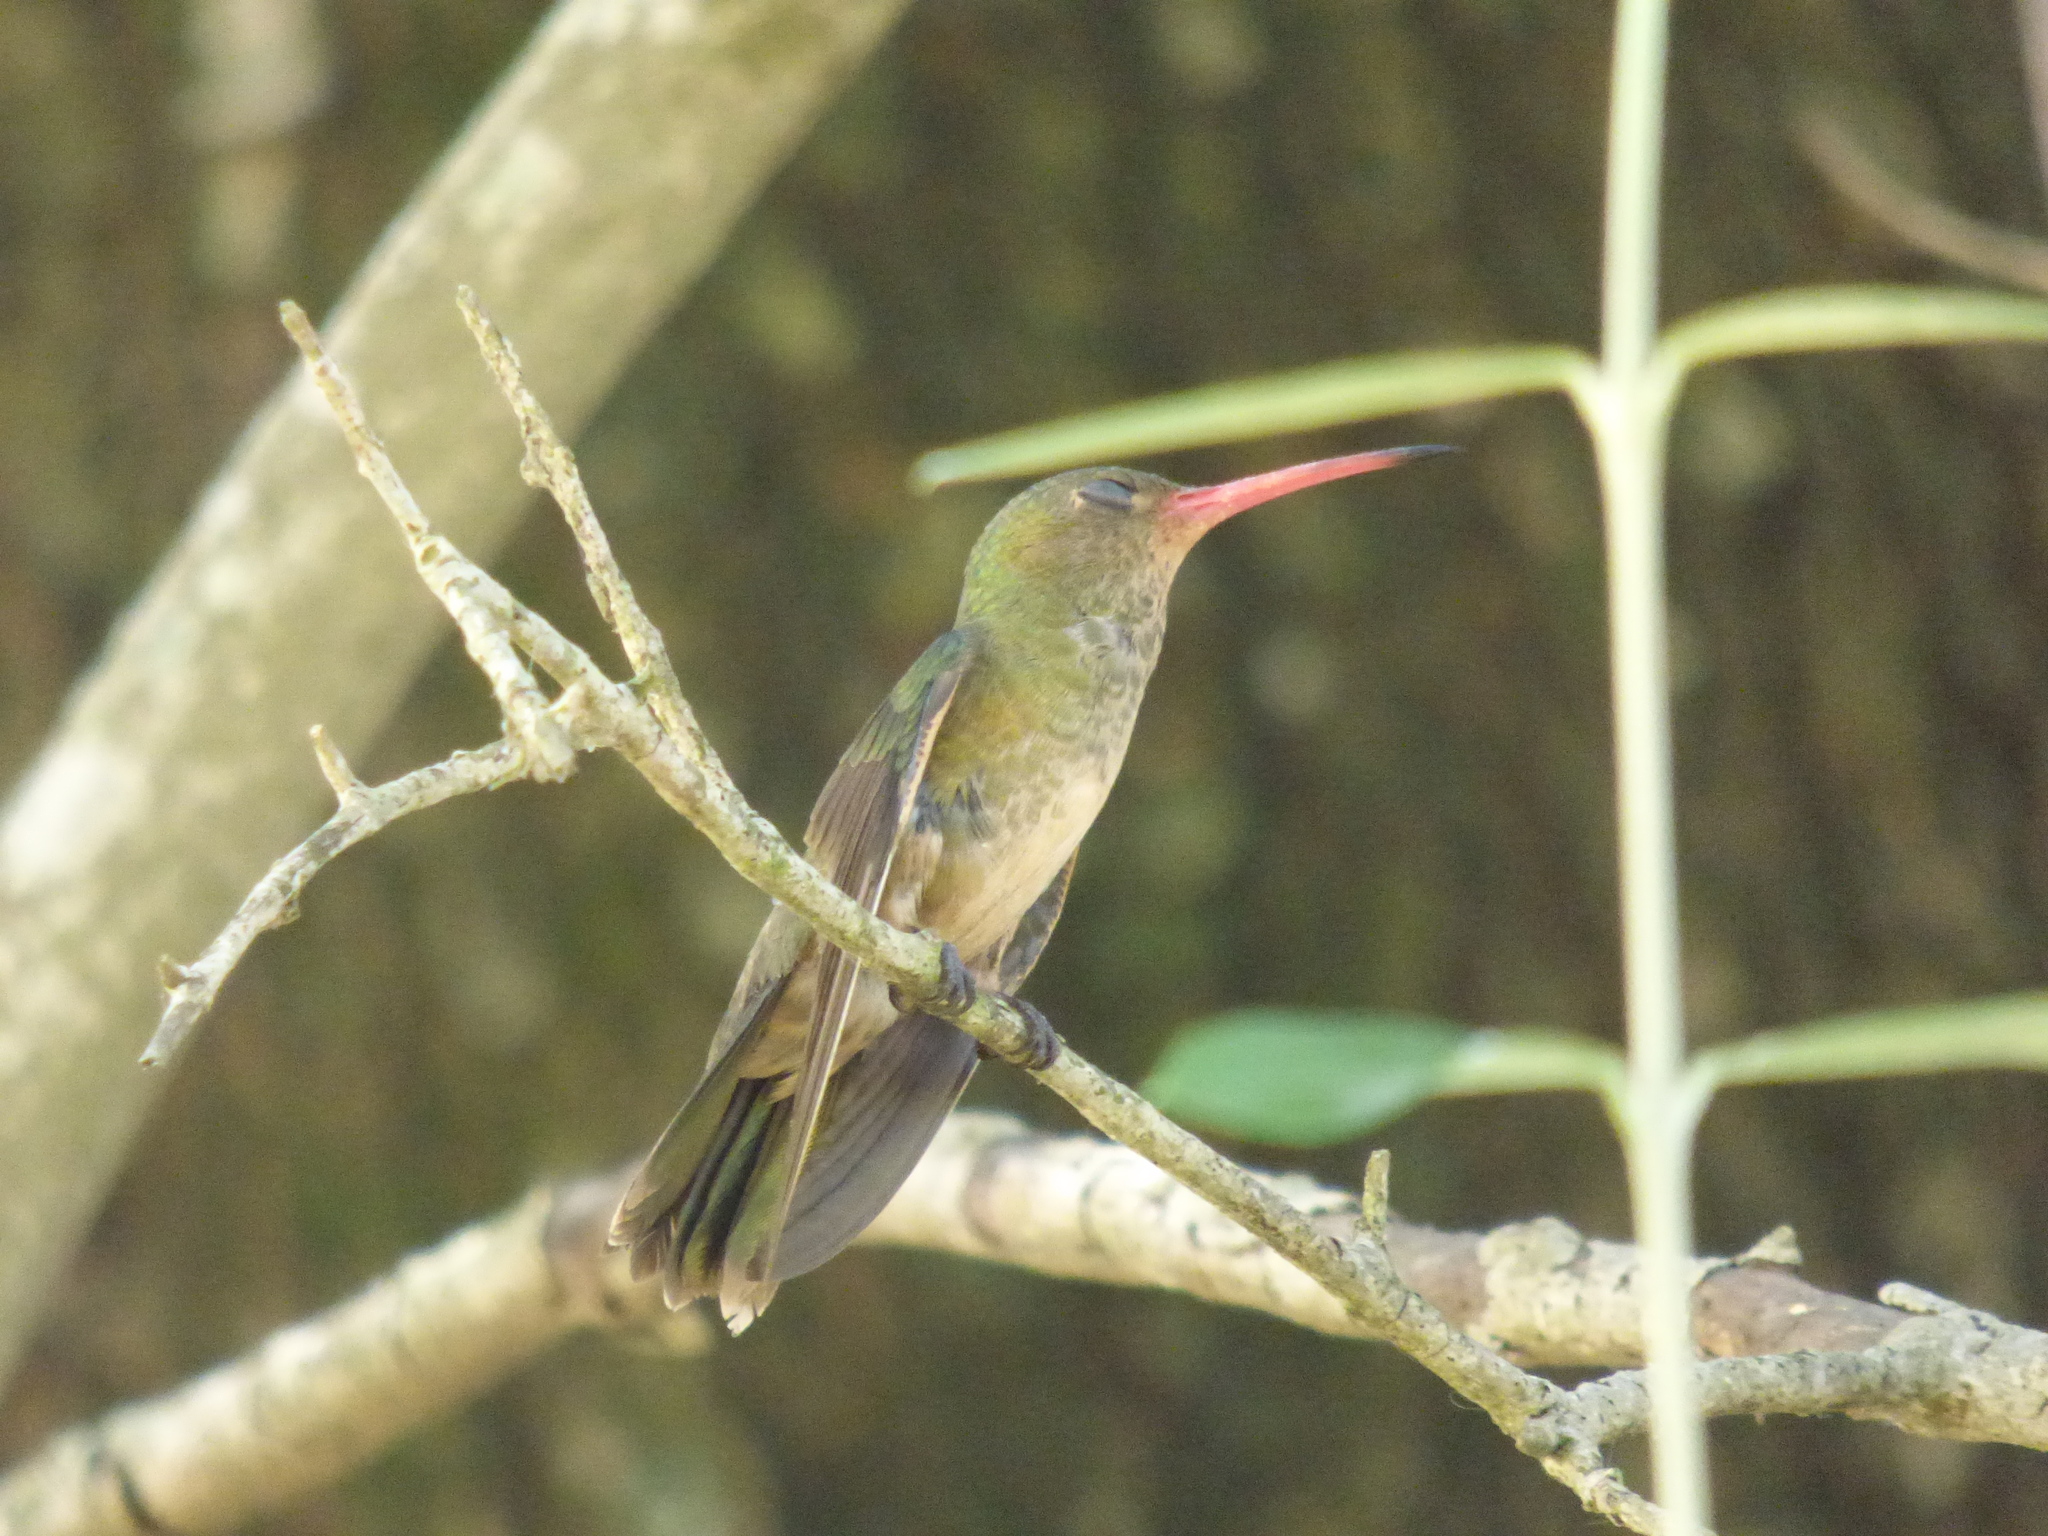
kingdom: Animalia
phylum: Chordata
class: Aves
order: Apodiformes
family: Trochilidae
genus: Hylocharis
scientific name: Hylocharis chrysura
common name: Gilded sapphire
